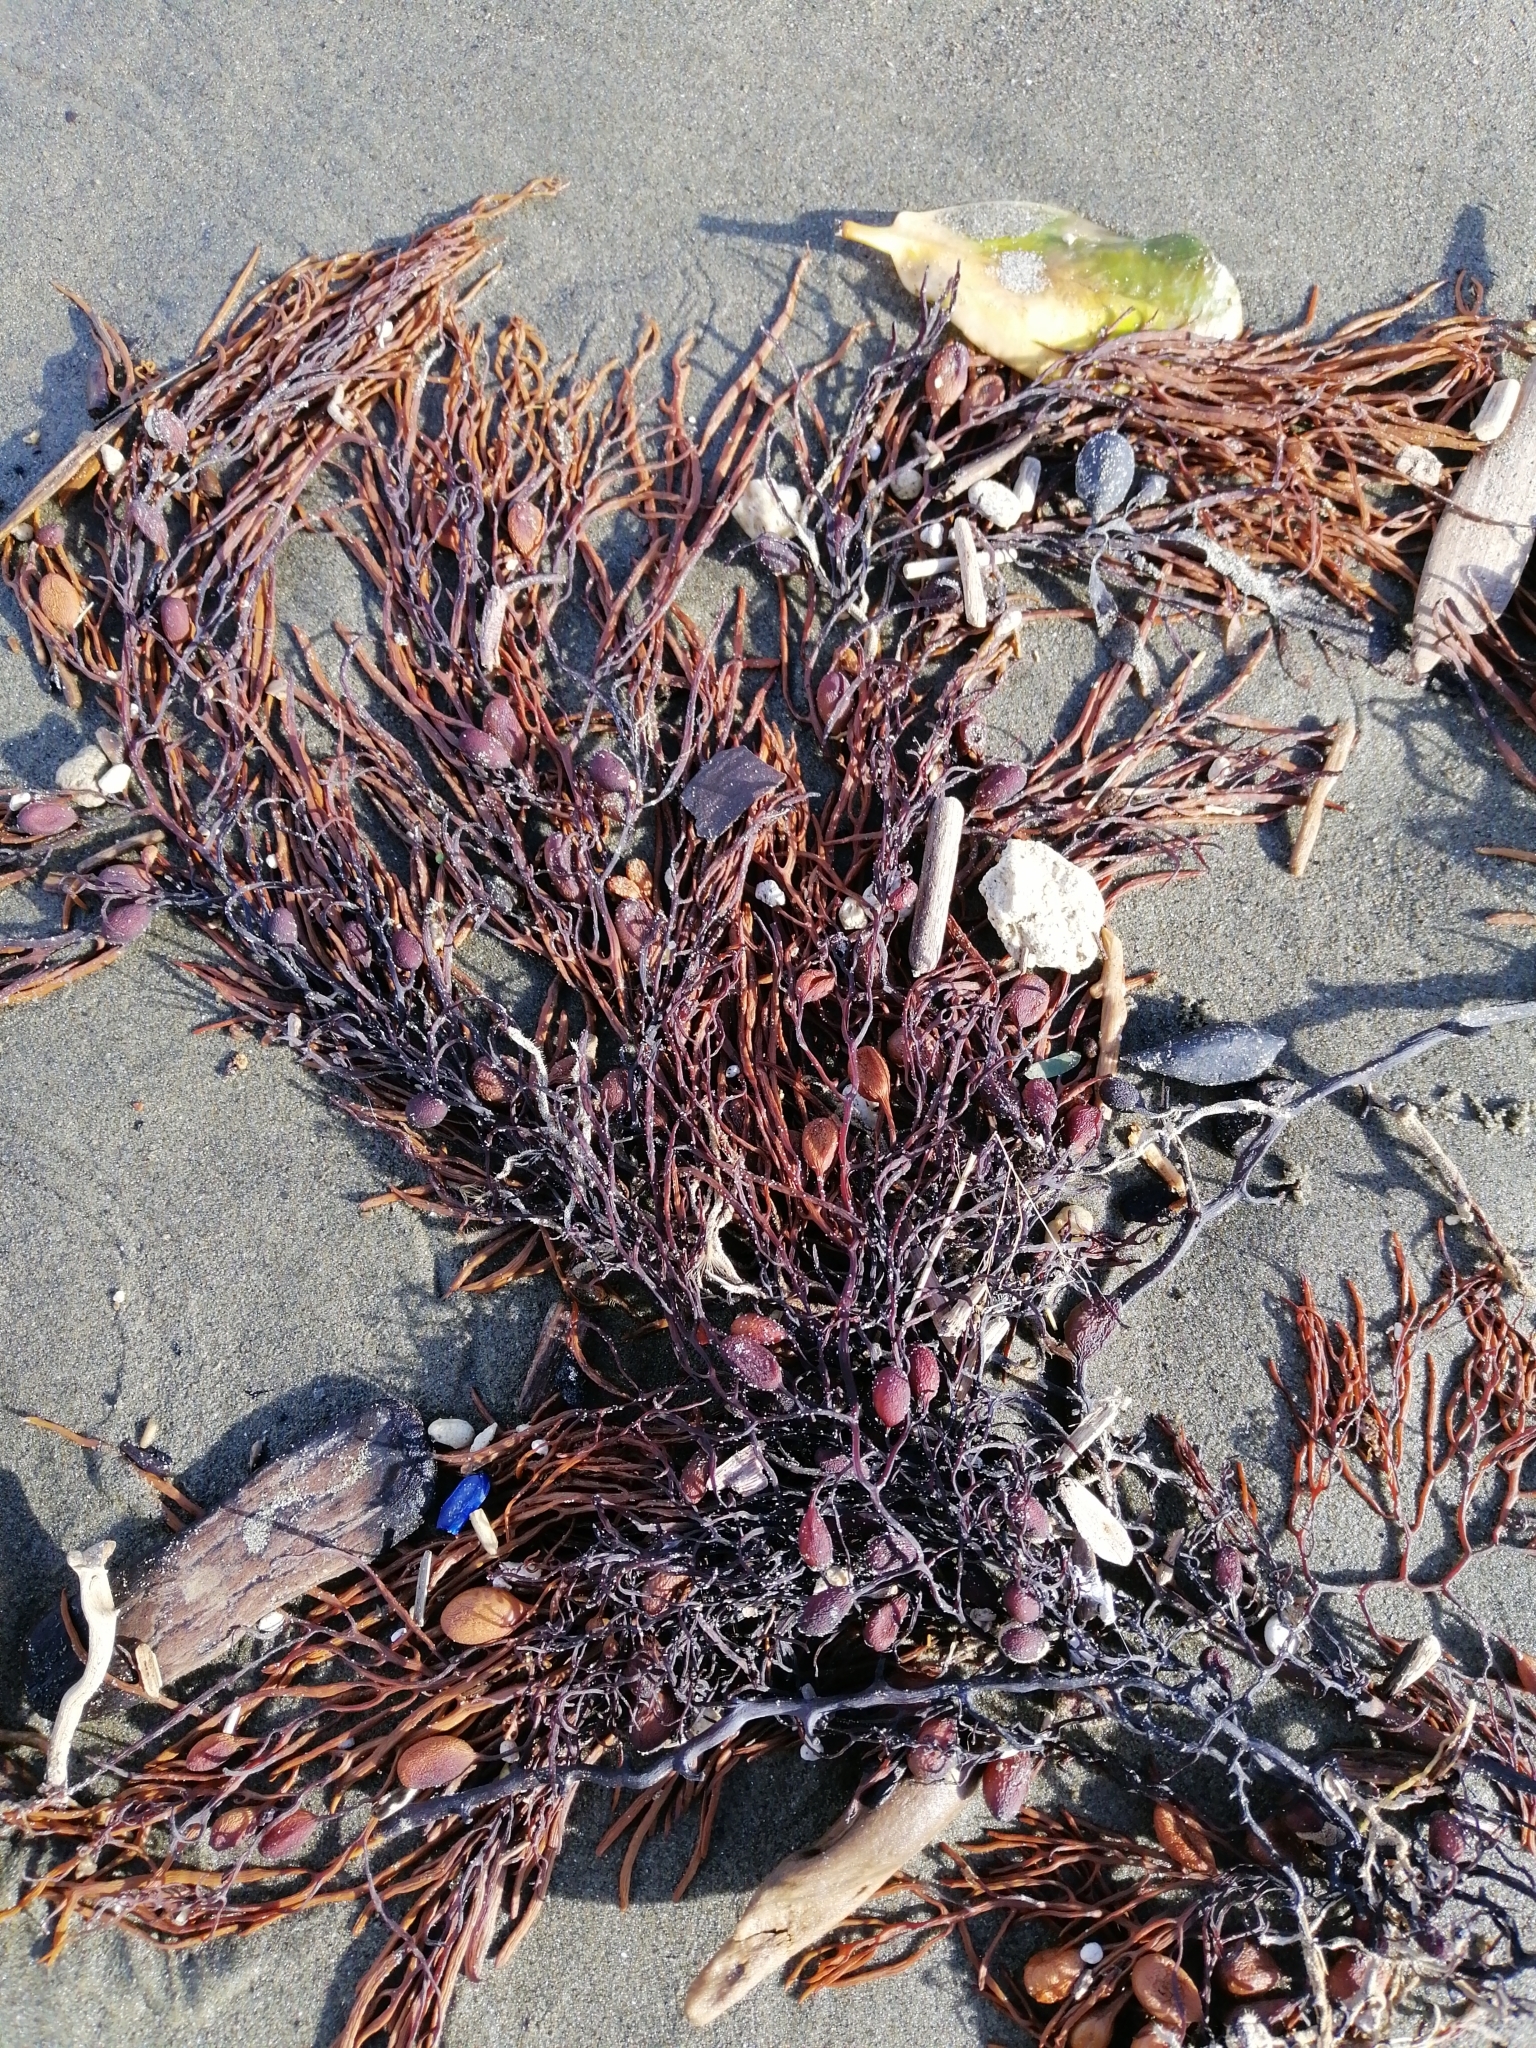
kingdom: Chromista
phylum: Ochrophyta
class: Phaeophyceae
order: Fucales
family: Sargassaceae
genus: Cystophora
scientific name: Cystophora retroflexa
